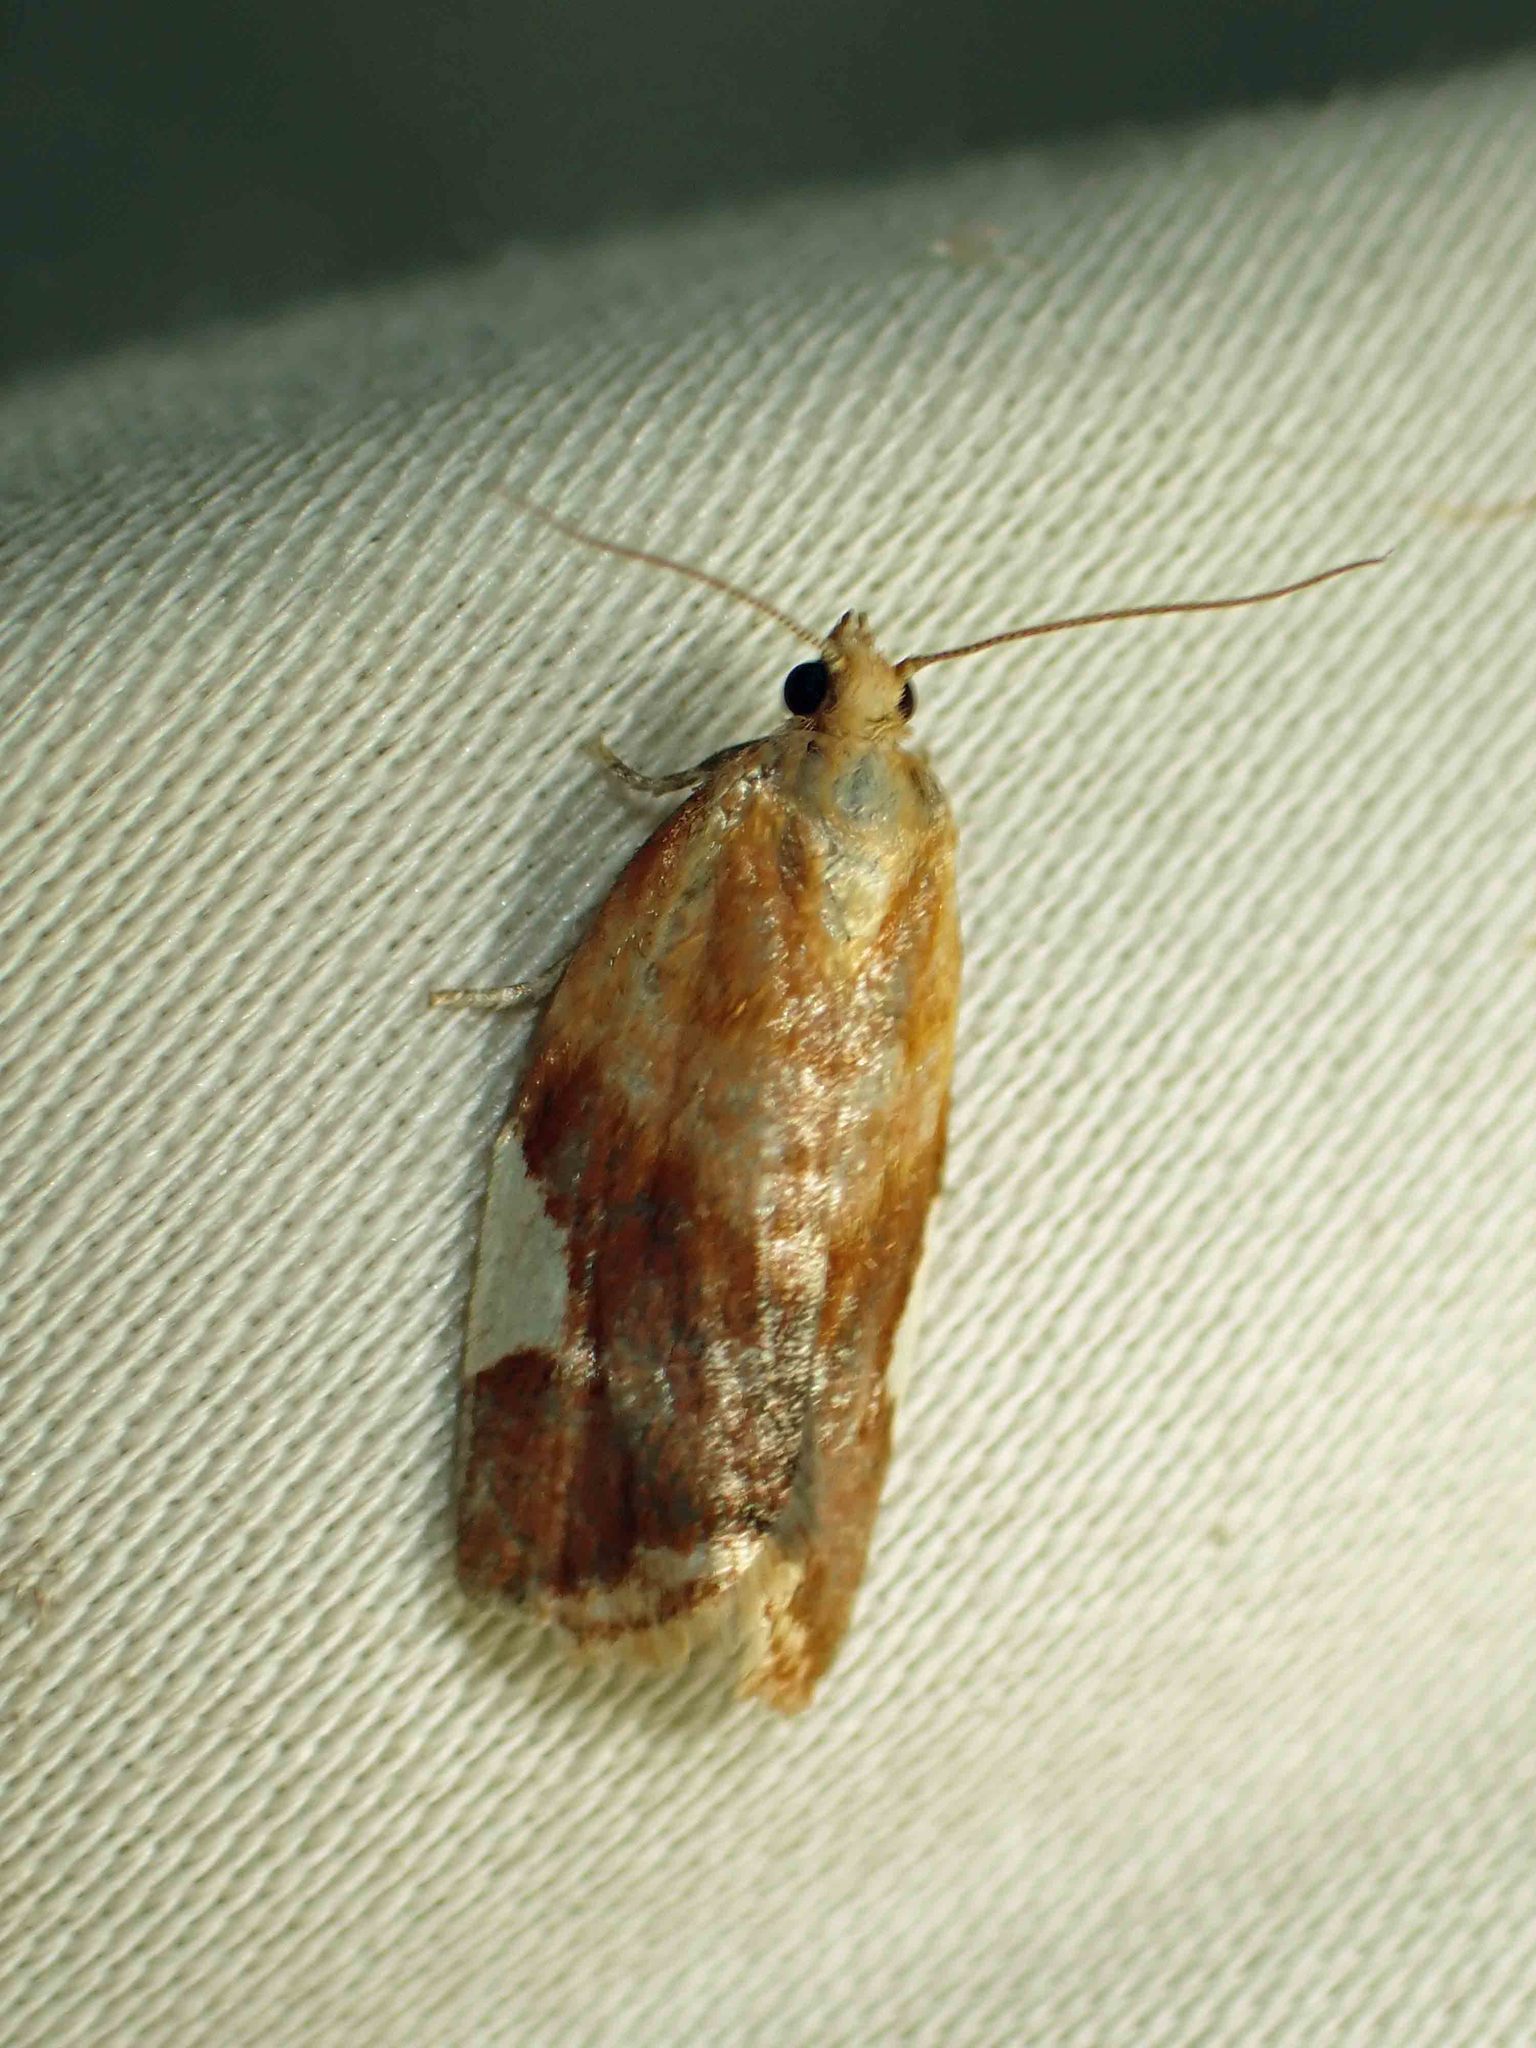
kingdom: Animalia
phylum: Arthropoda
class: Insecta
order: Lepidoptera
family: Tortricidae
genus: Clepsis
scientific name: Clepsis persicana
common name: White triangle tortrix
